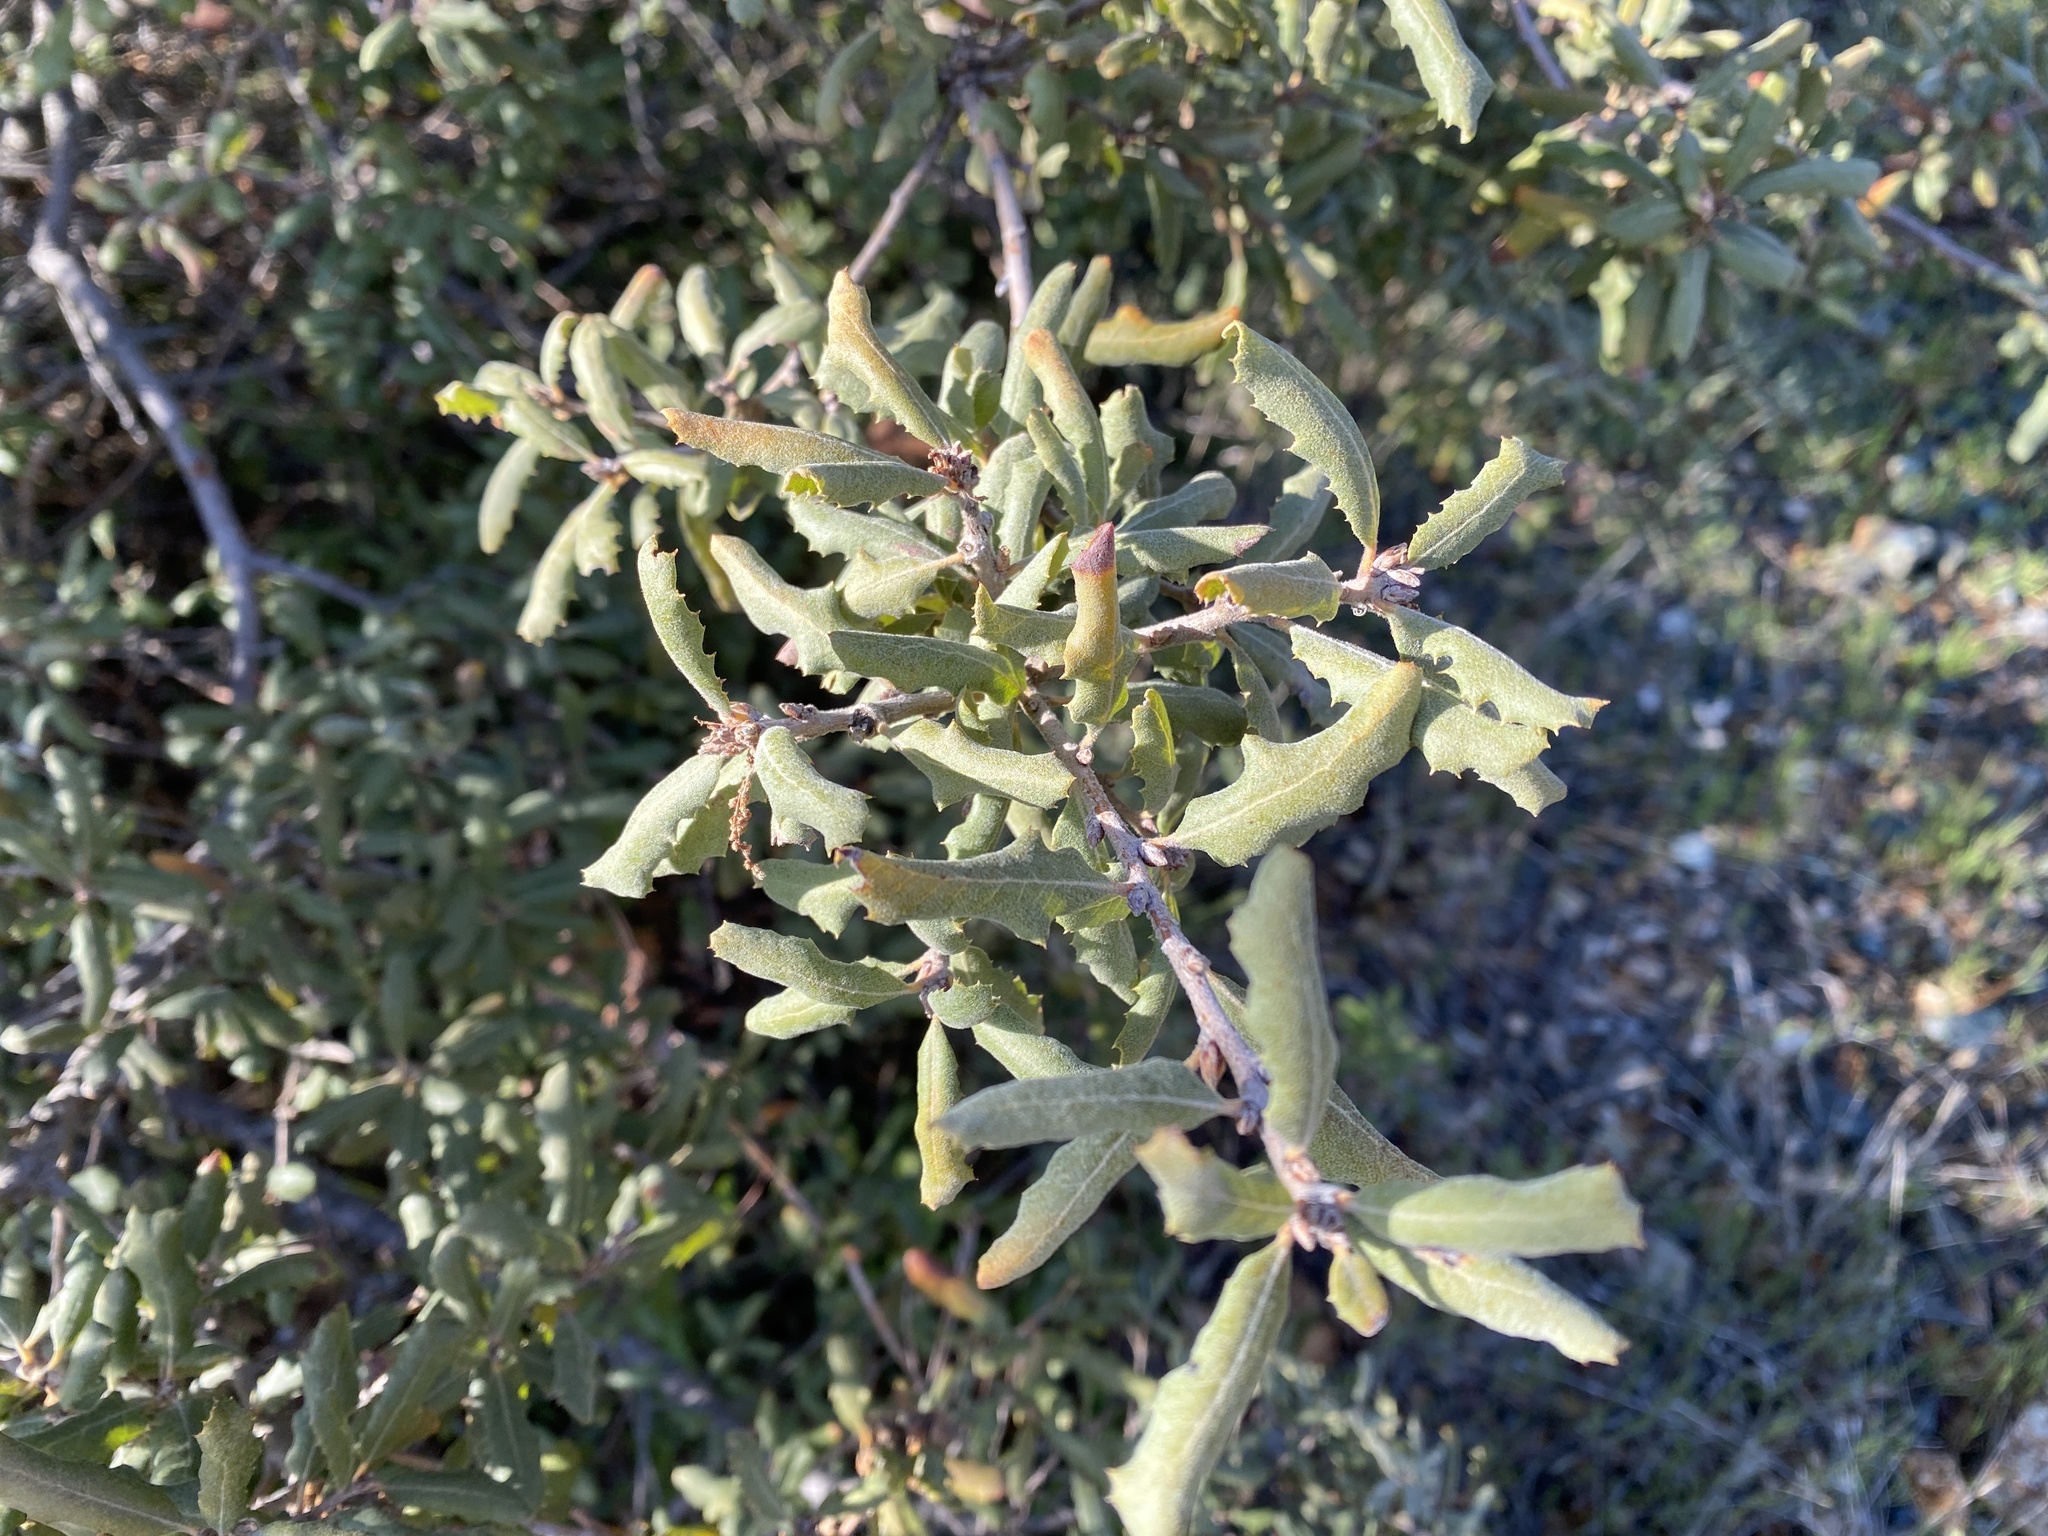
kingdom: Plantae
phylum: Tracheophyta
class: Magnoliopsida
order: Fagales
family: Fagaceae
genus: Quercus
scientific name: Quercus durata
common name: Leather oak
